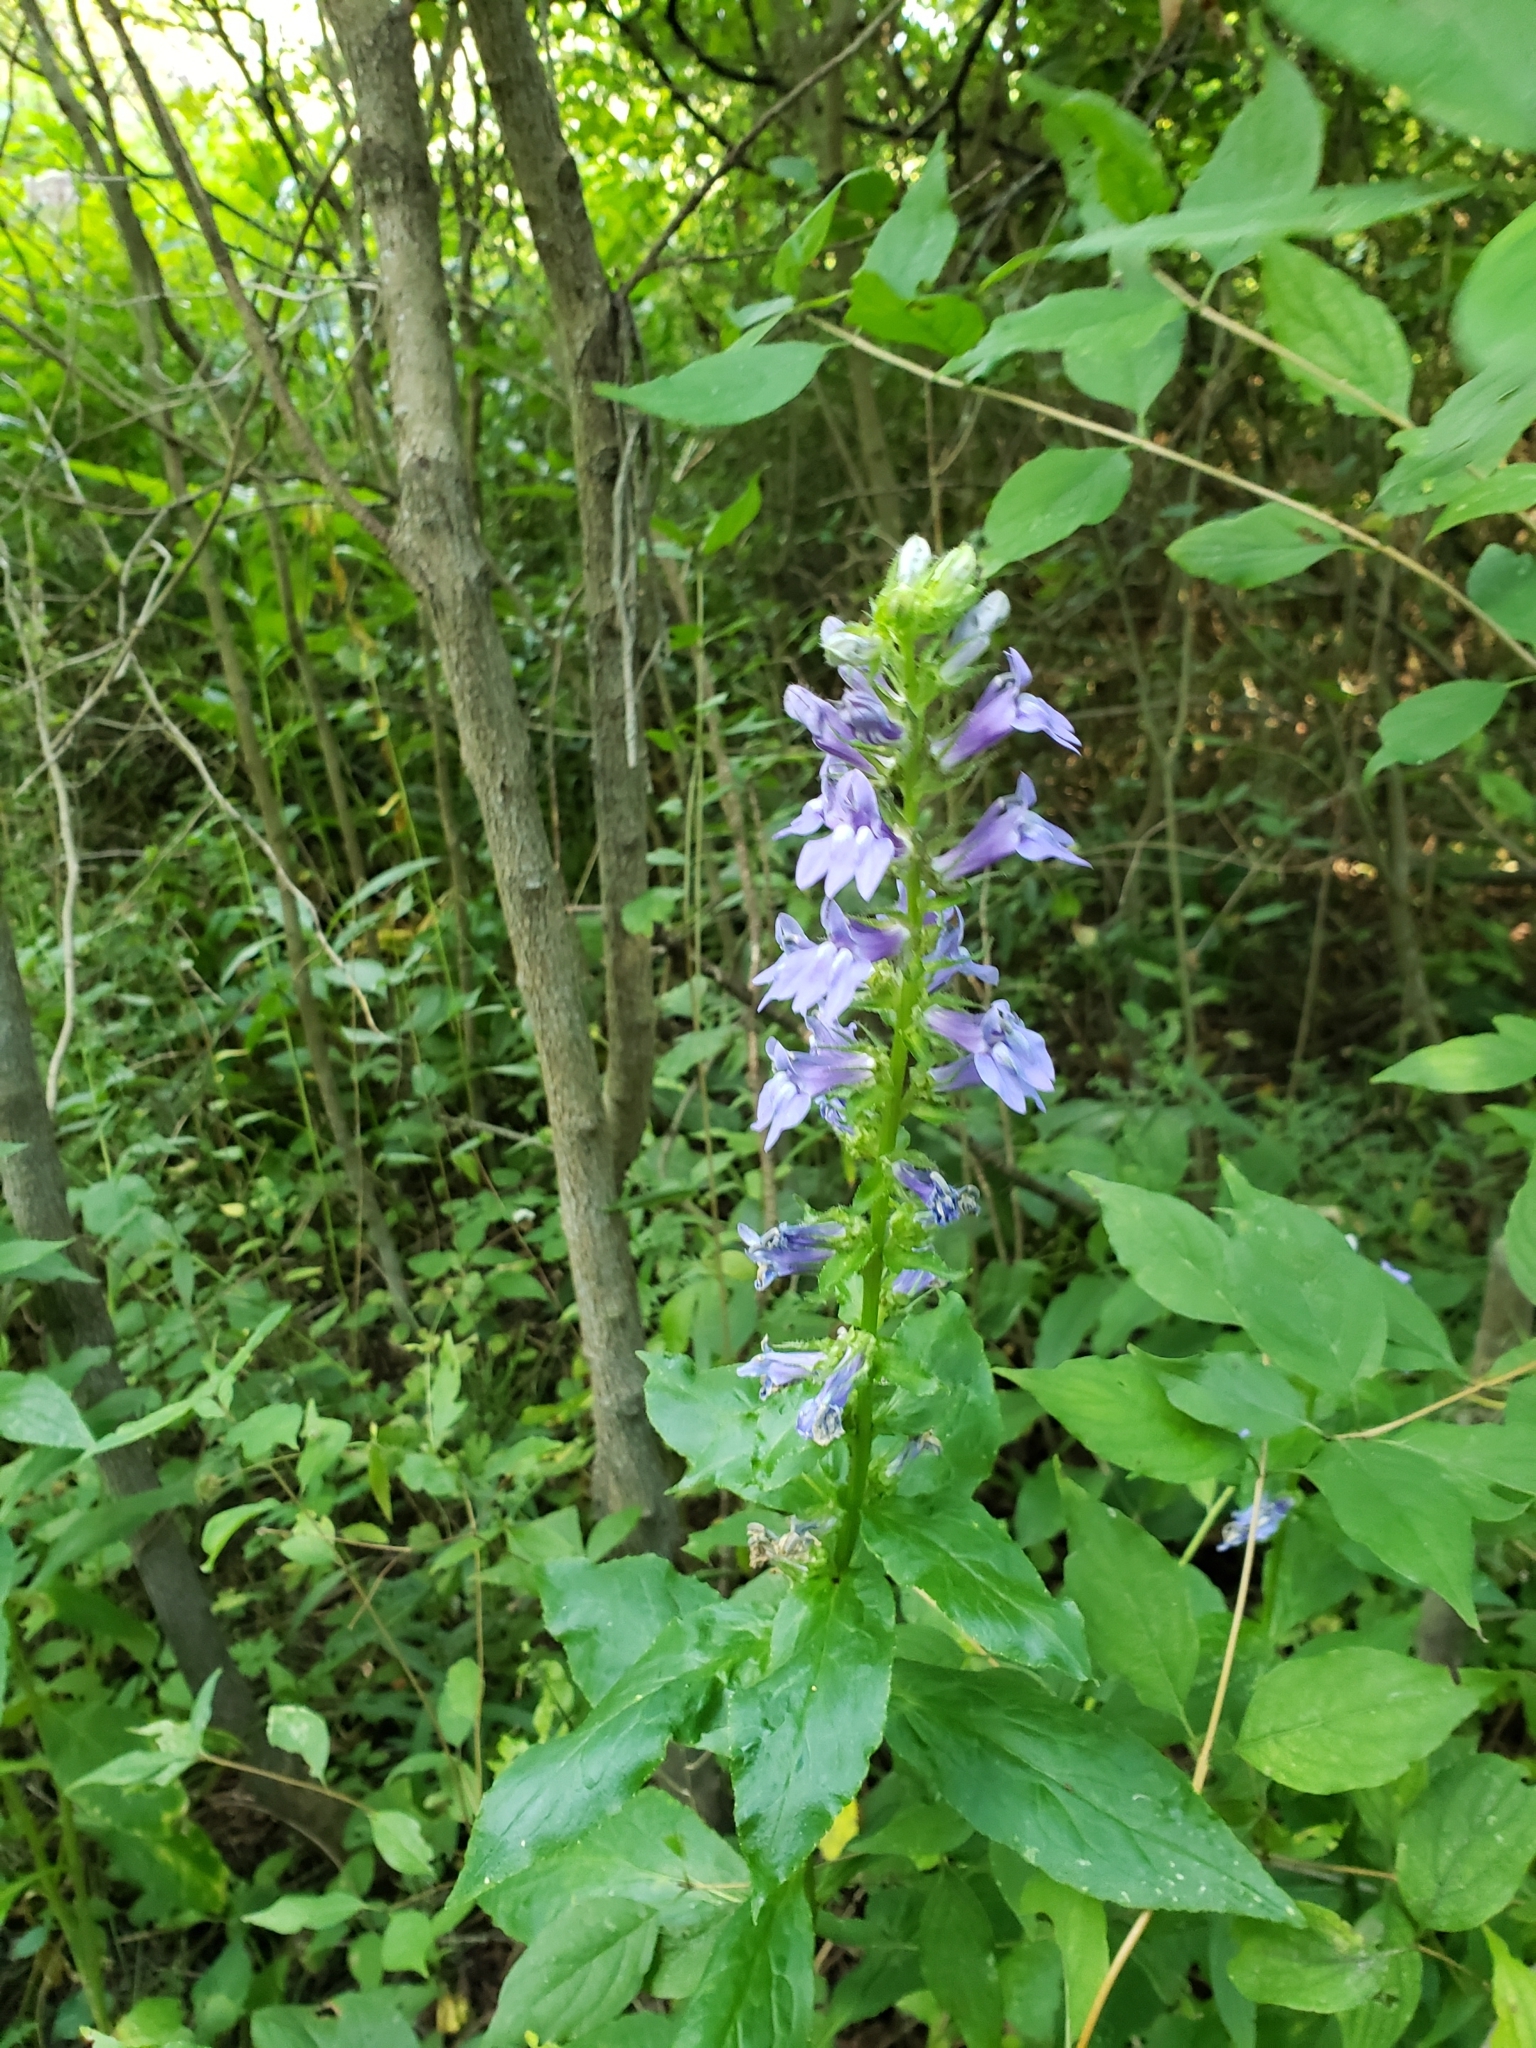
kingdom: Plantae
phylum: Tracheophyta
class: Magnoliopsida
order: Asterales
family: Campanulaceae
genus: Lobelia
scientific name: Lobelia siphilitica
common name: Great lobelia
